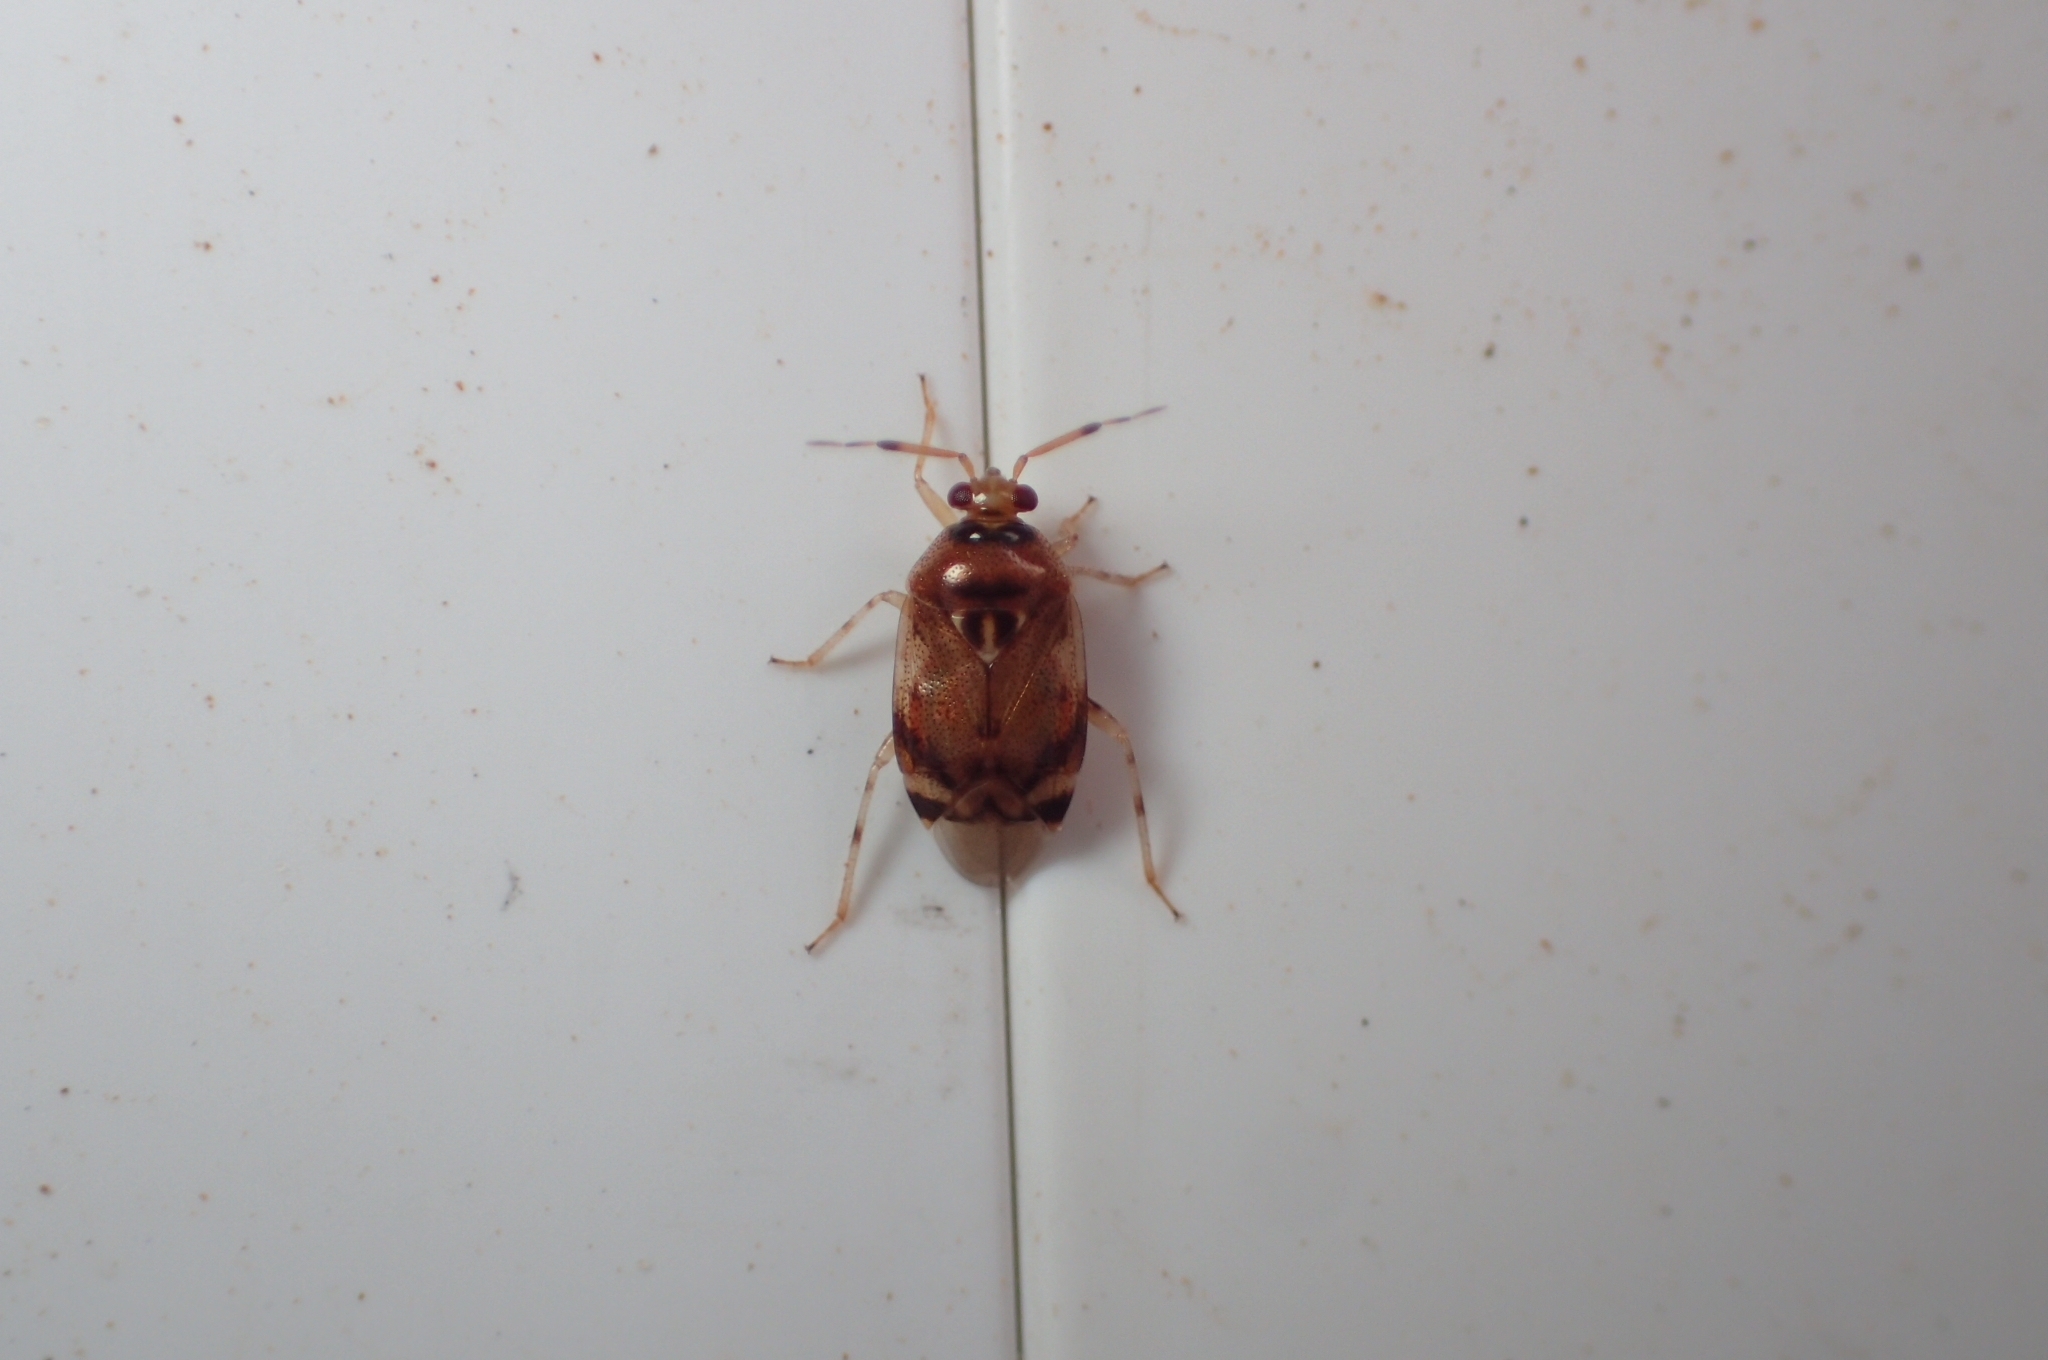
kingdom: Animalia
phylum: Arthropoda
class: Insecta
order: Hemiptera
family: Miridae
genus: Deraeocoris
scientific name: Deraeocoris lutescens
